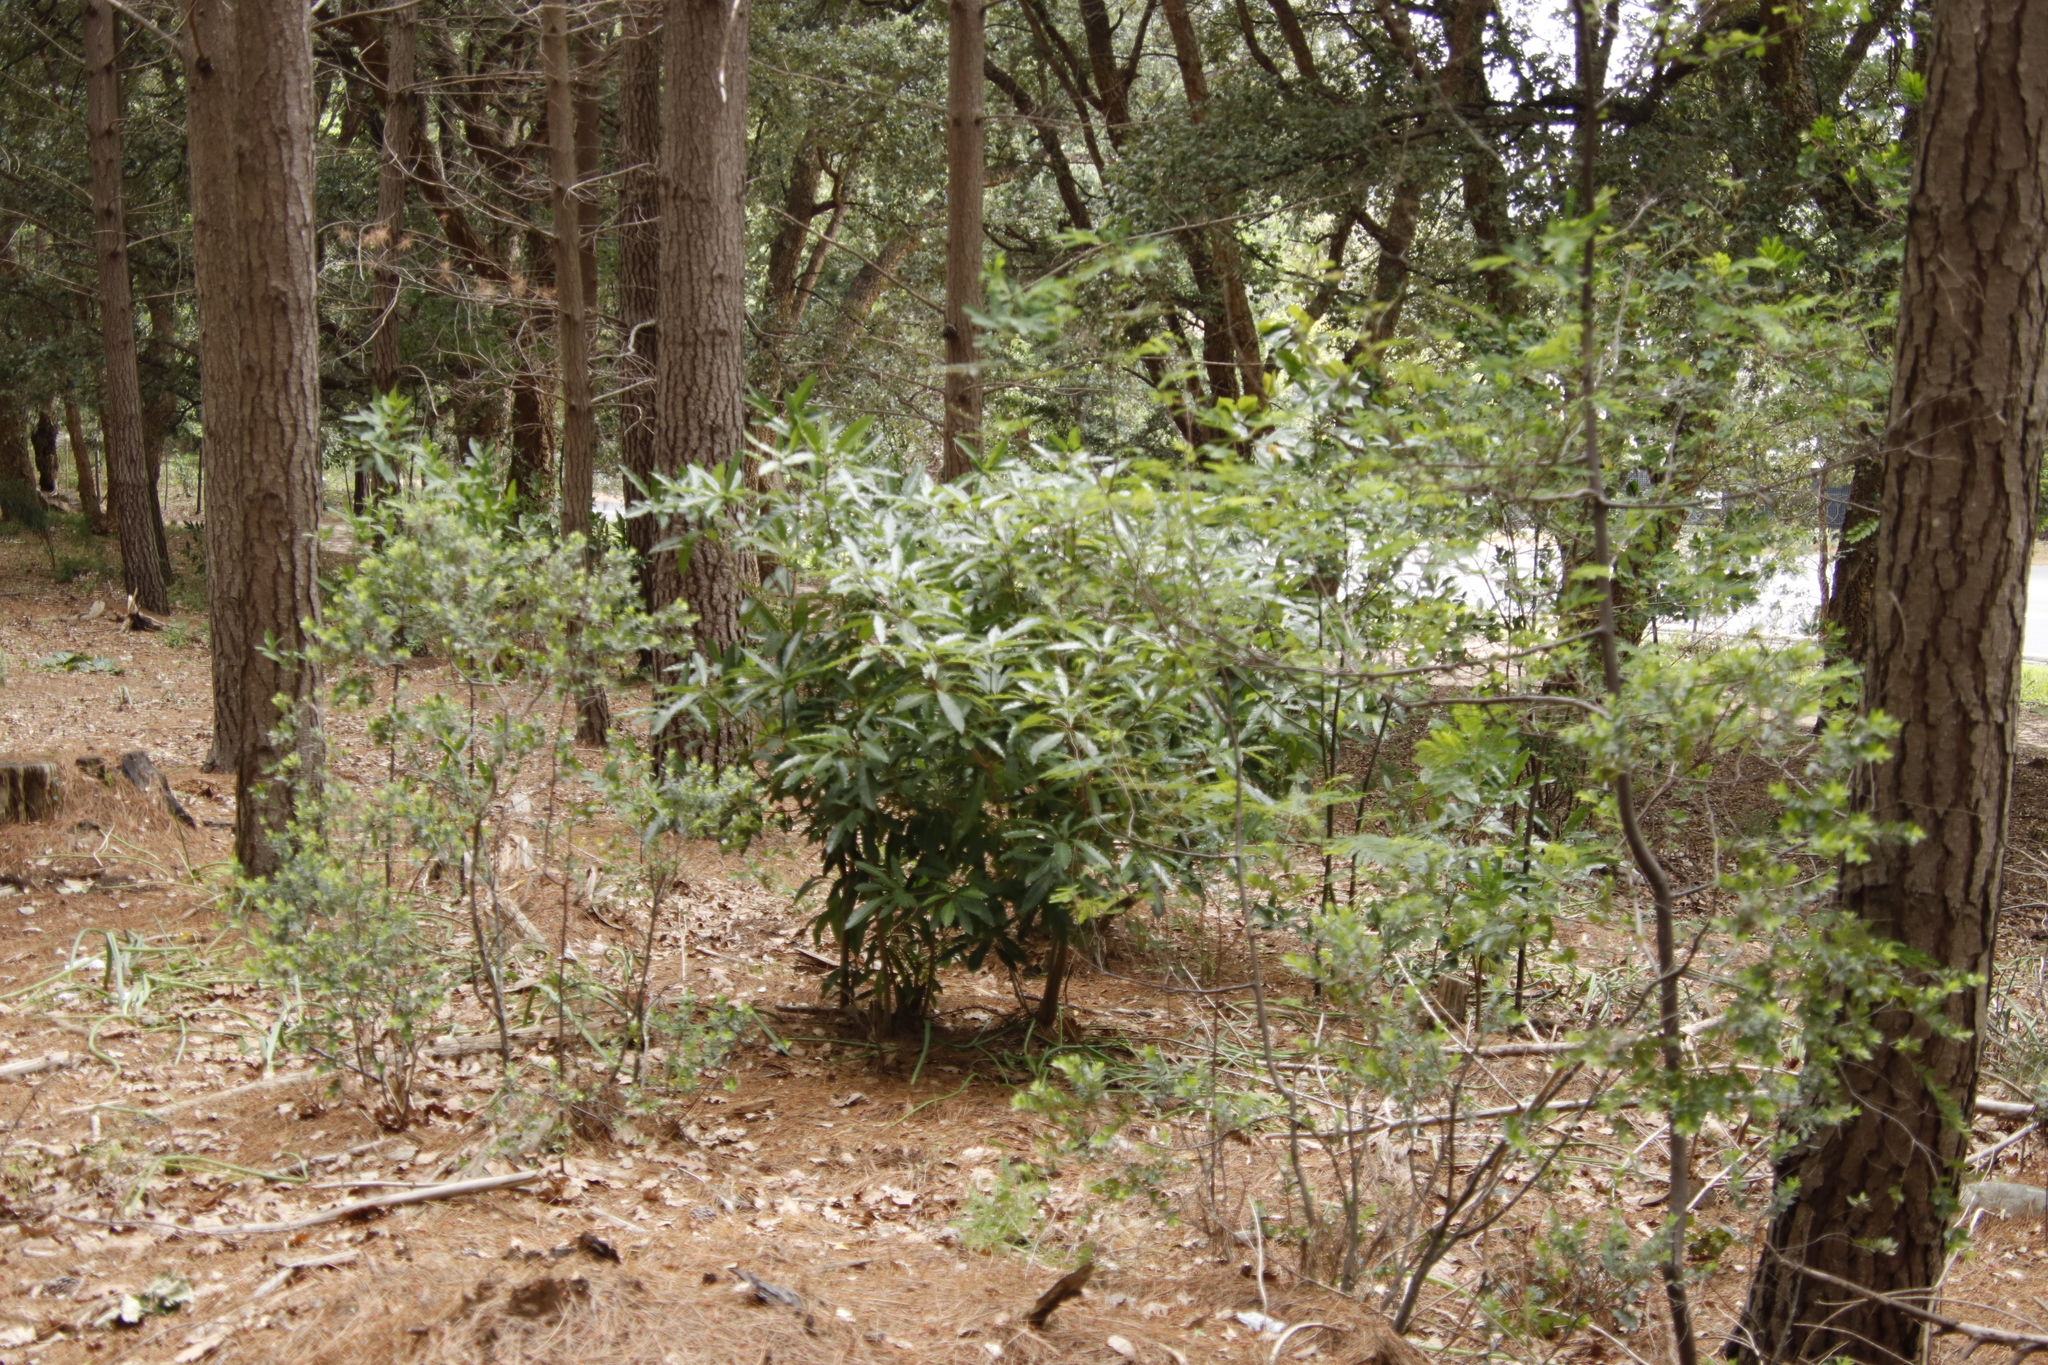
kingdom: Plantae
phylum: Tracheophyta
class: Magnoliopsida
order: Apiales
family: Pittosporaceae
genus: Pittosporum
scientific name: Pittosporum undulatum
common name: Australian cheesewood
